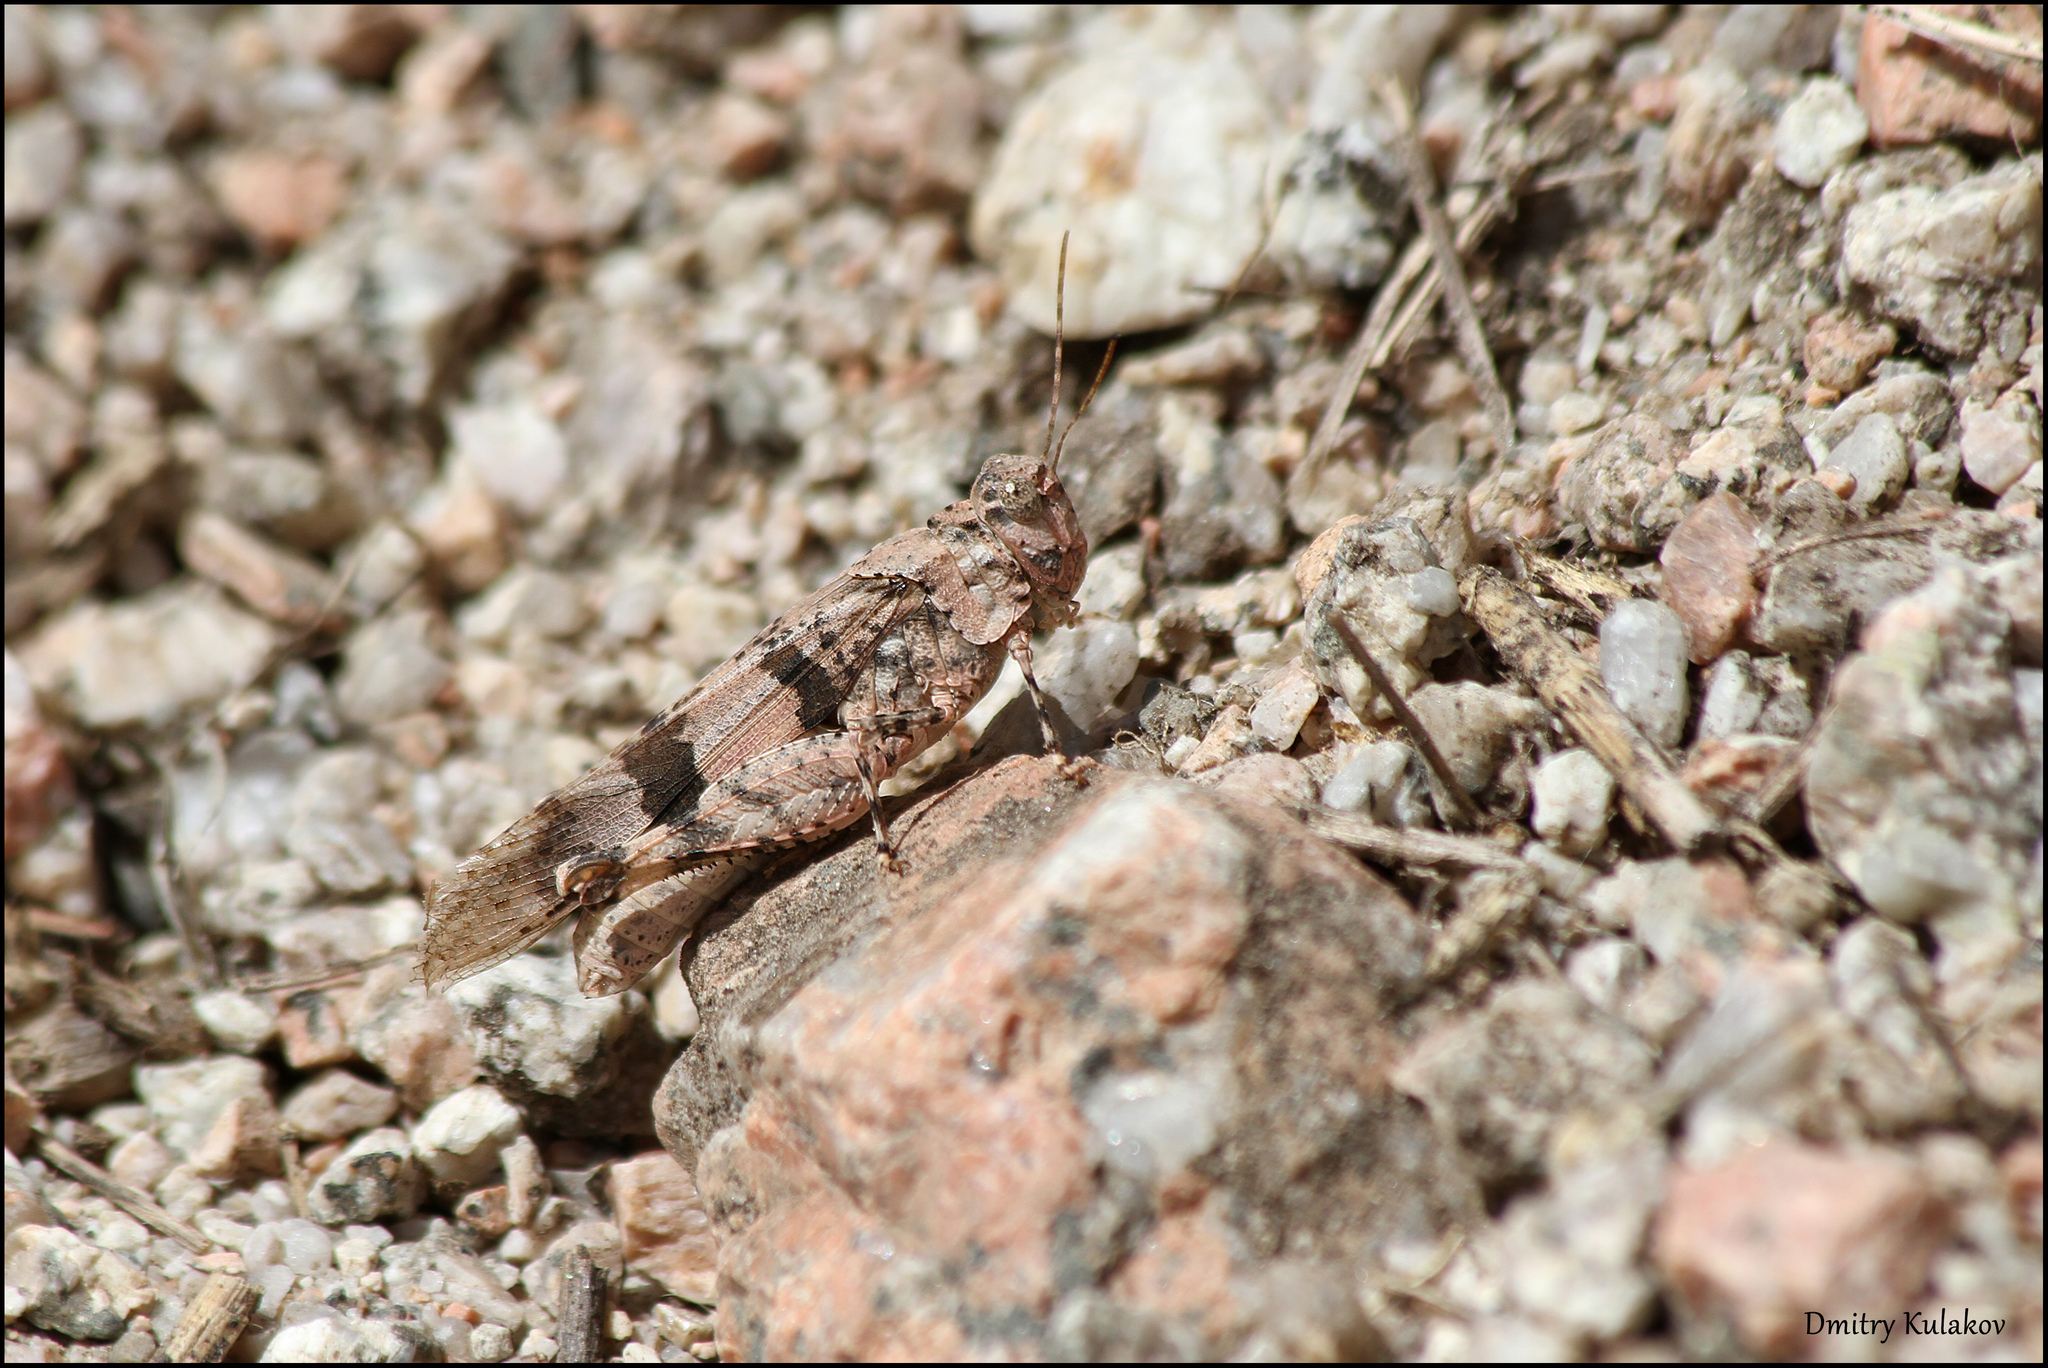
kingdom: Animalia
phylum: Arthropoda
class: Insecta
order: Orthoptera
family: Acrididae
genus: Oedipoda
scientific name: Oedipoda fedtschenki
